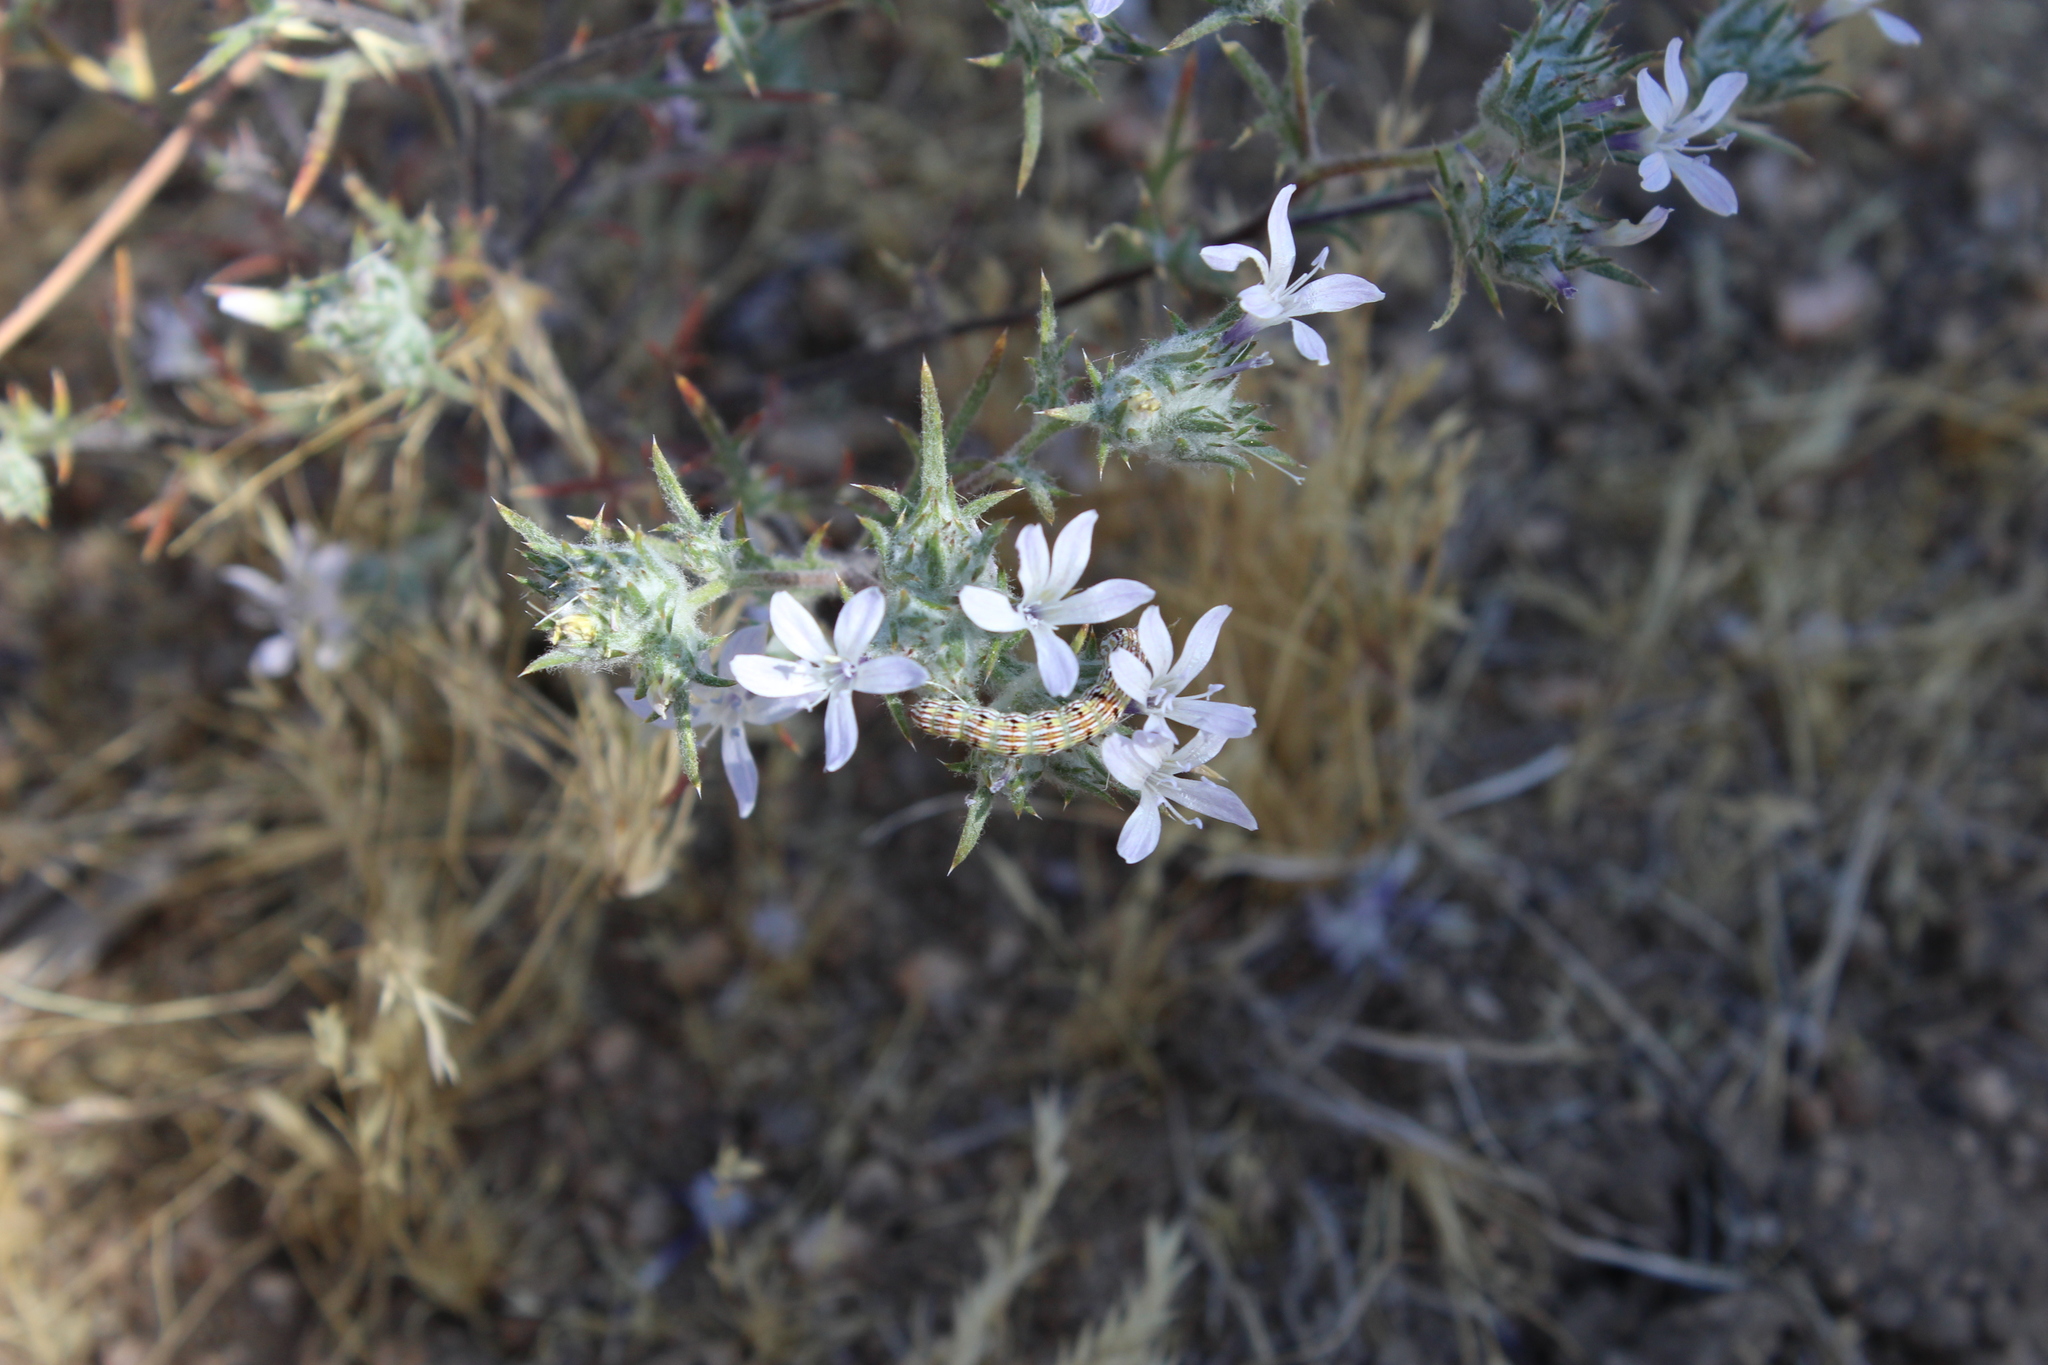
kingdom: Plantae
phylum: Tracheophyta
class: Magnoliopsida
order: Ericales
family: Polemoniaceae
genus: Eriastrum
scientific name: Eriastrum eremicum
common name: Desert eriastrum
